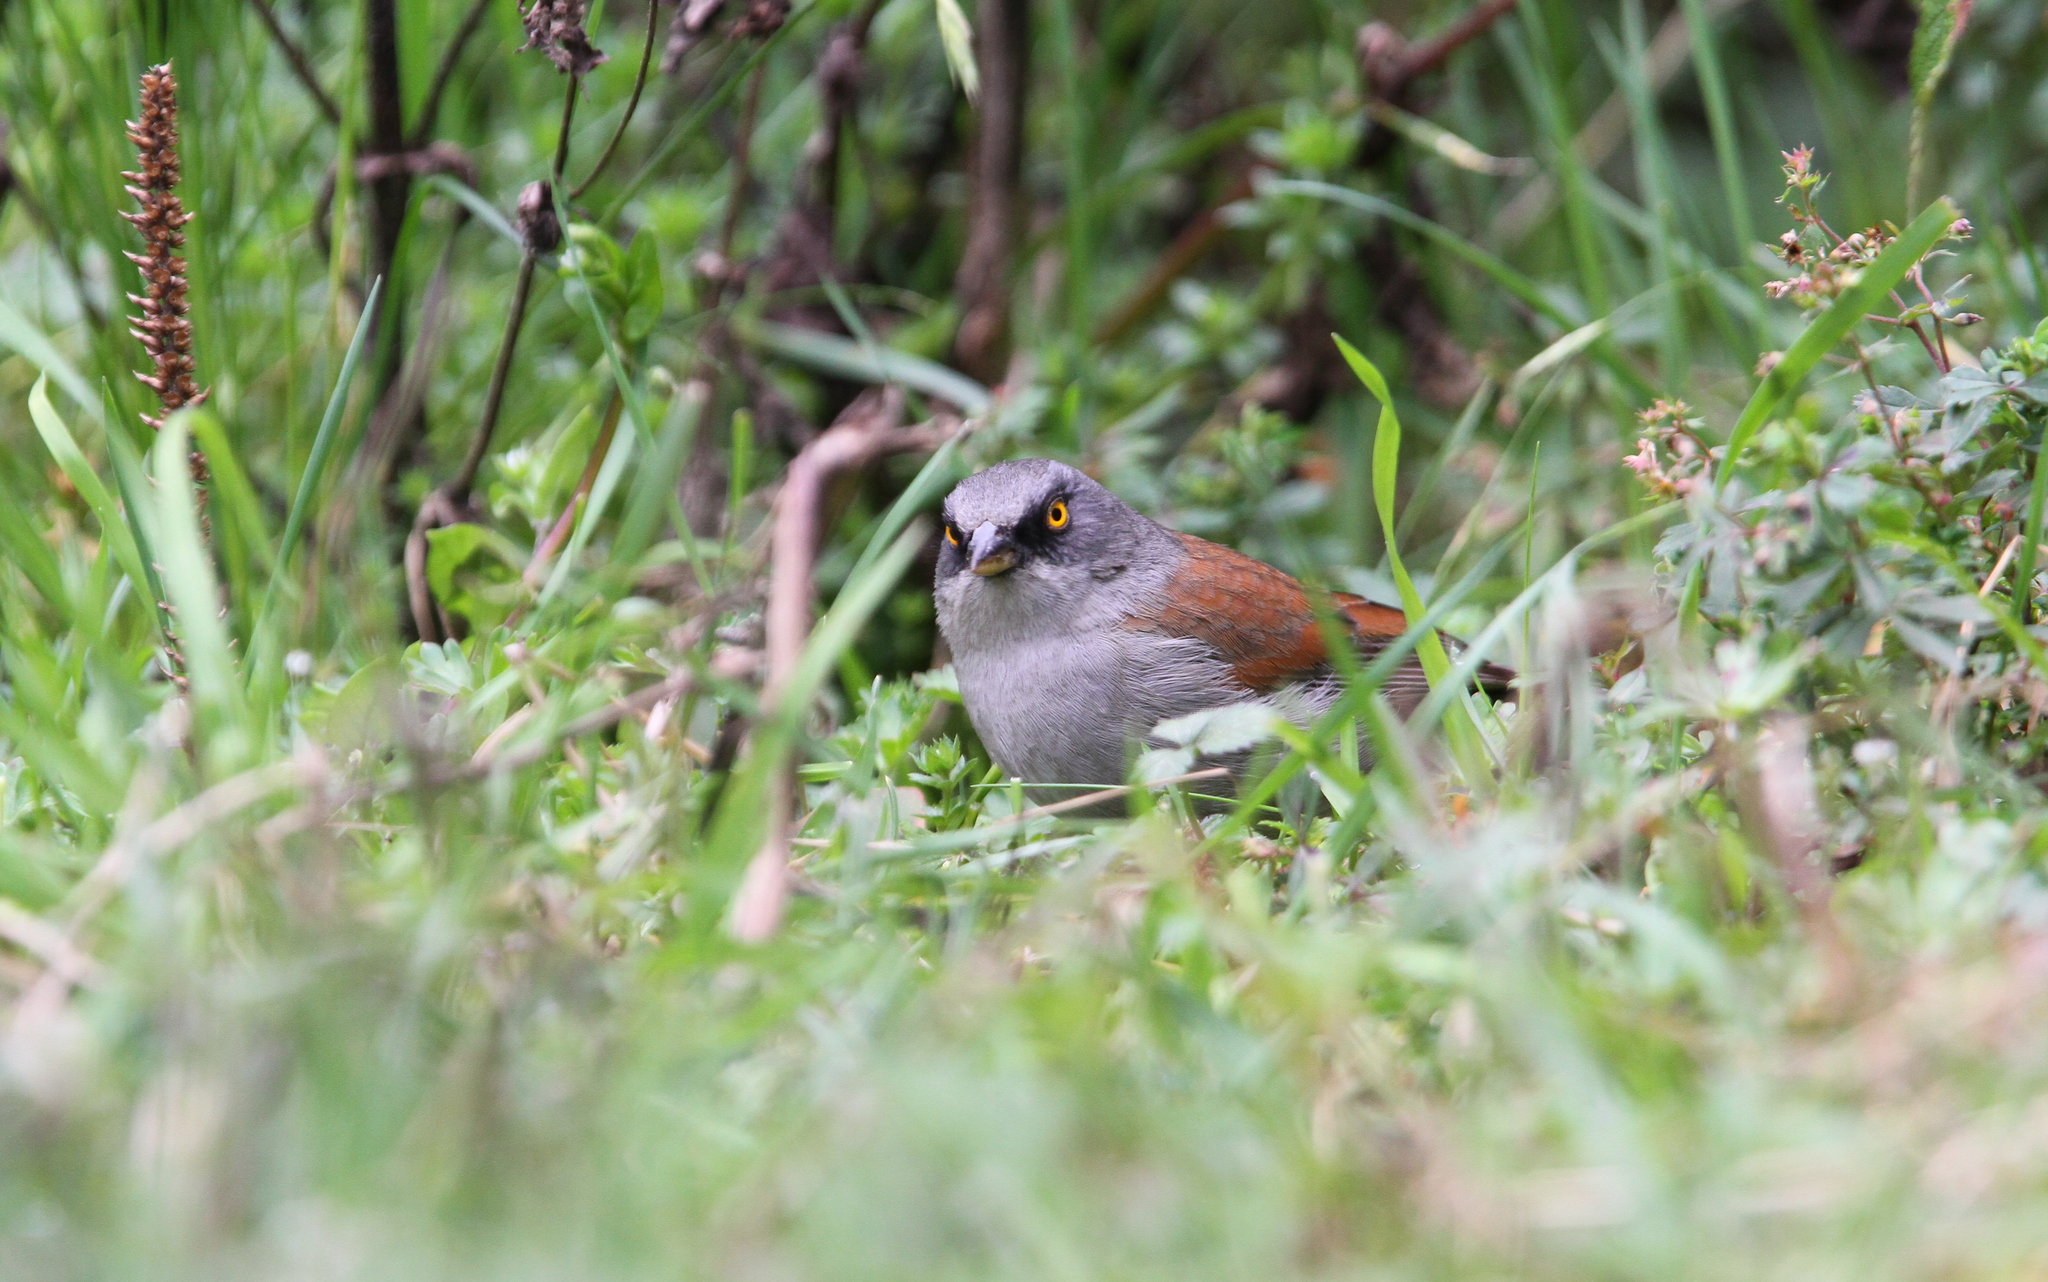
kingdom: Animalia
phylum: Chordata
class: Aves
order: Passeriformes
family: Passerellidae
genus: Junco
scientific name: Junco phaeonotus
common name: Yellow-eyed junco
